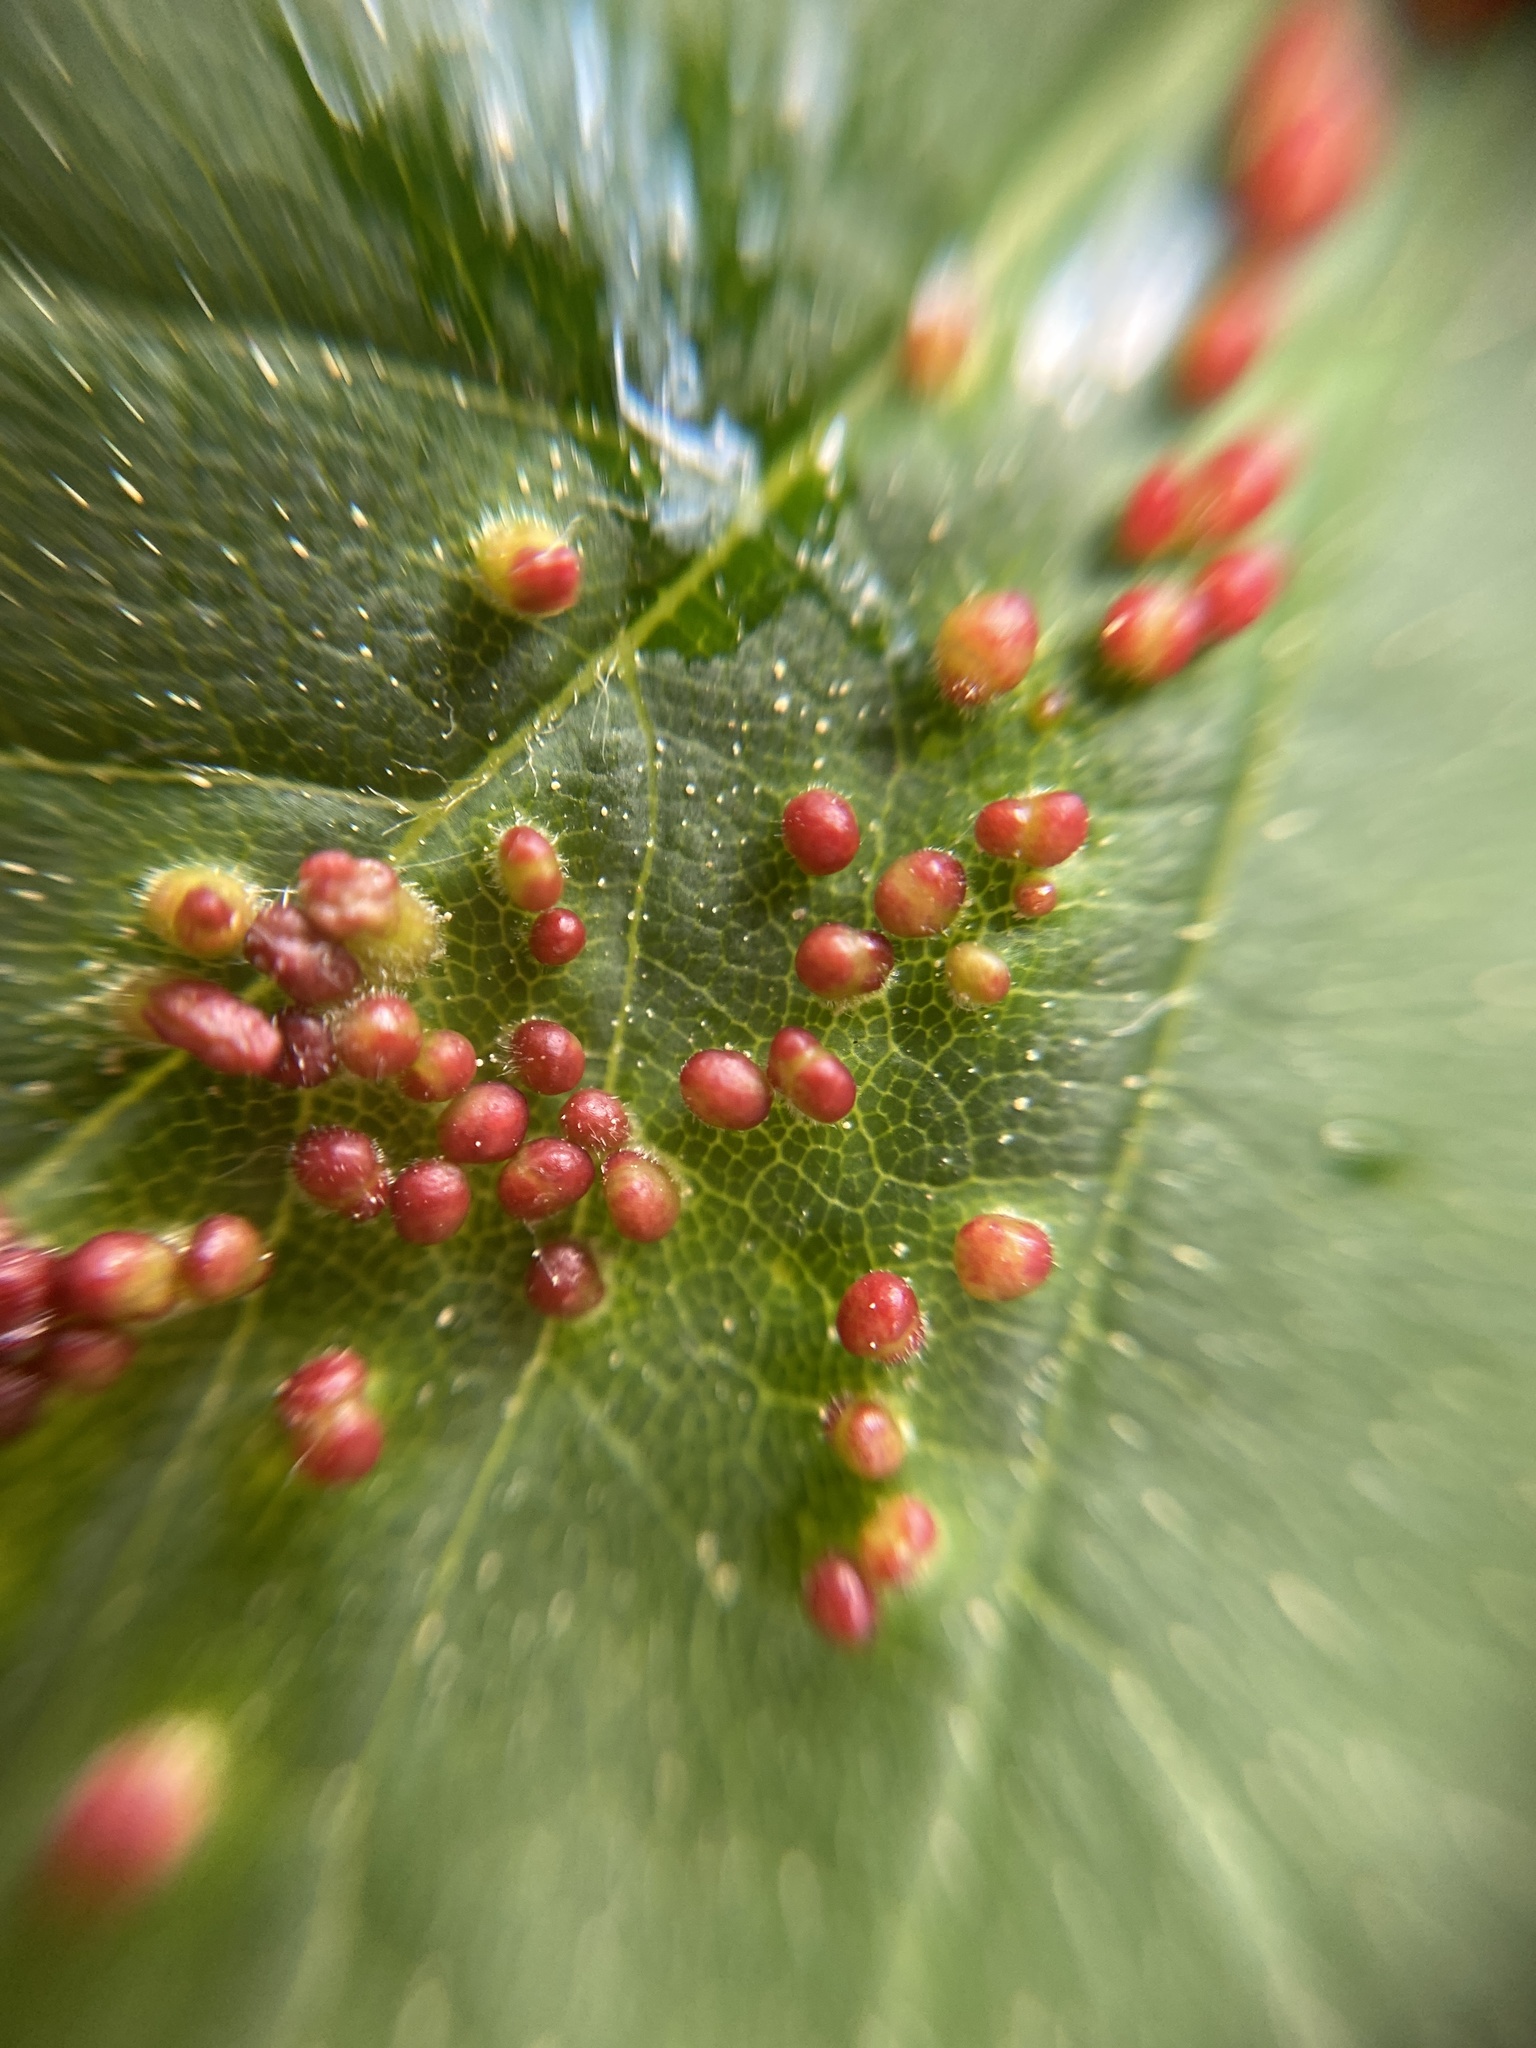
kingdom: Animalia
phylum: Arthropoda
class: Arachnida
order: Trombidiformes
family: Eriophyidae
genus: Aceria
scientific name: Aceria macrorhynchus
